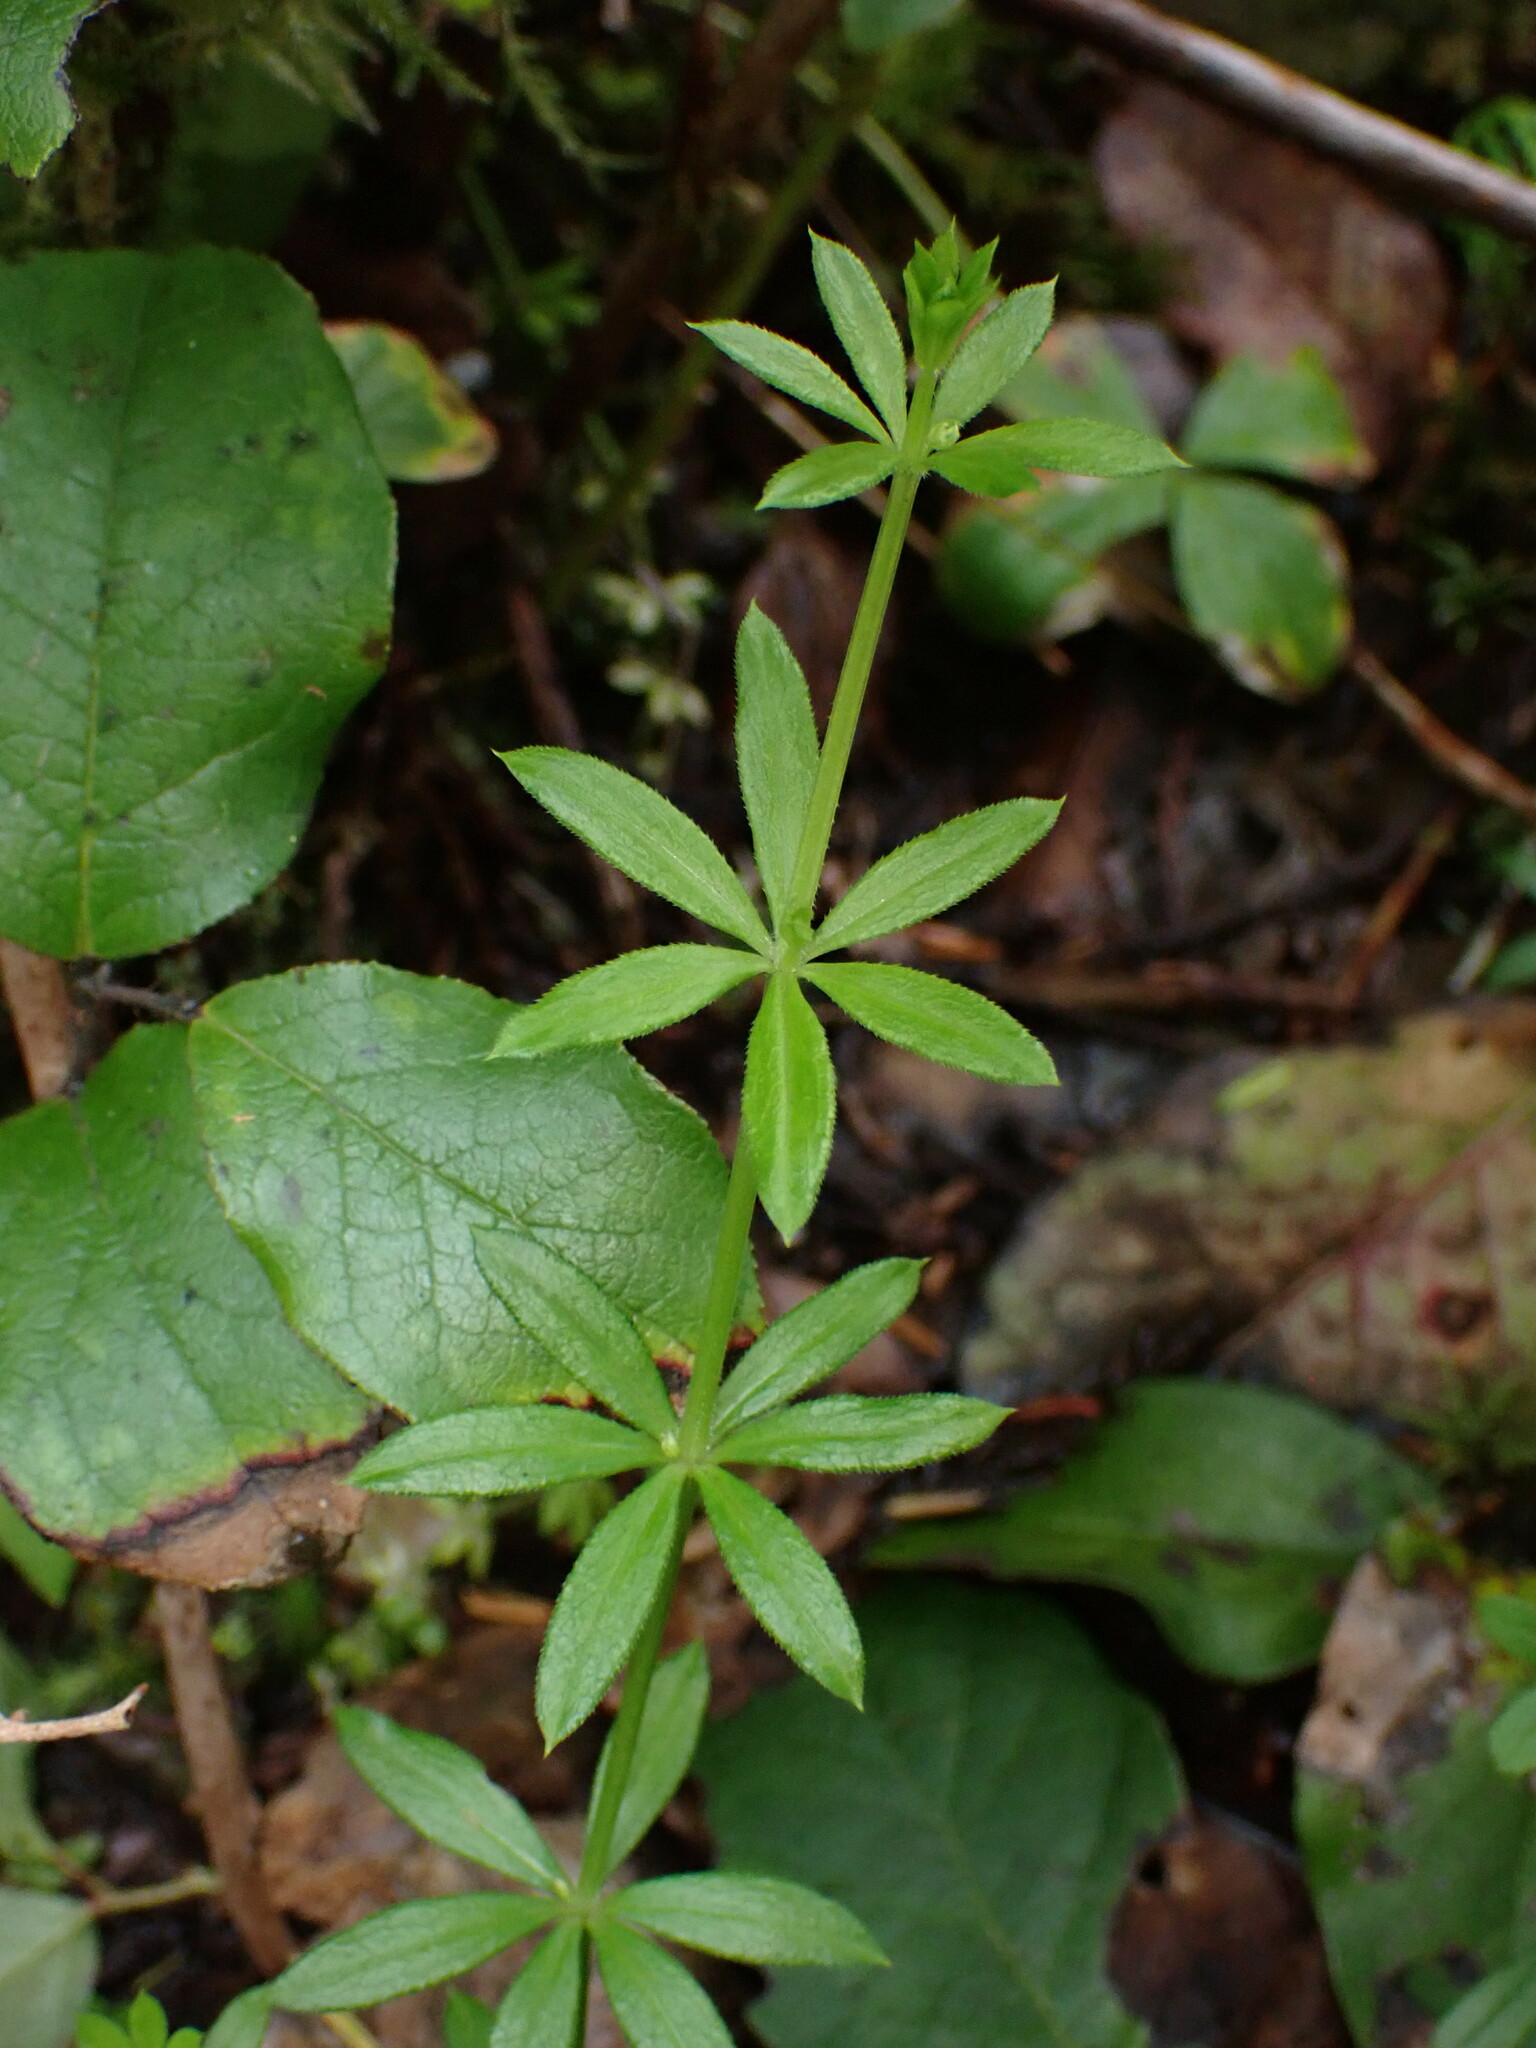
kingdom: Plantae
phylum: Tracheophyta
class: Magnoliopsida
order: Gentianales
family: Rubiaceae
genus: Galium
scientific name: Galium triflorum
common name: Fragrant bedstraw
